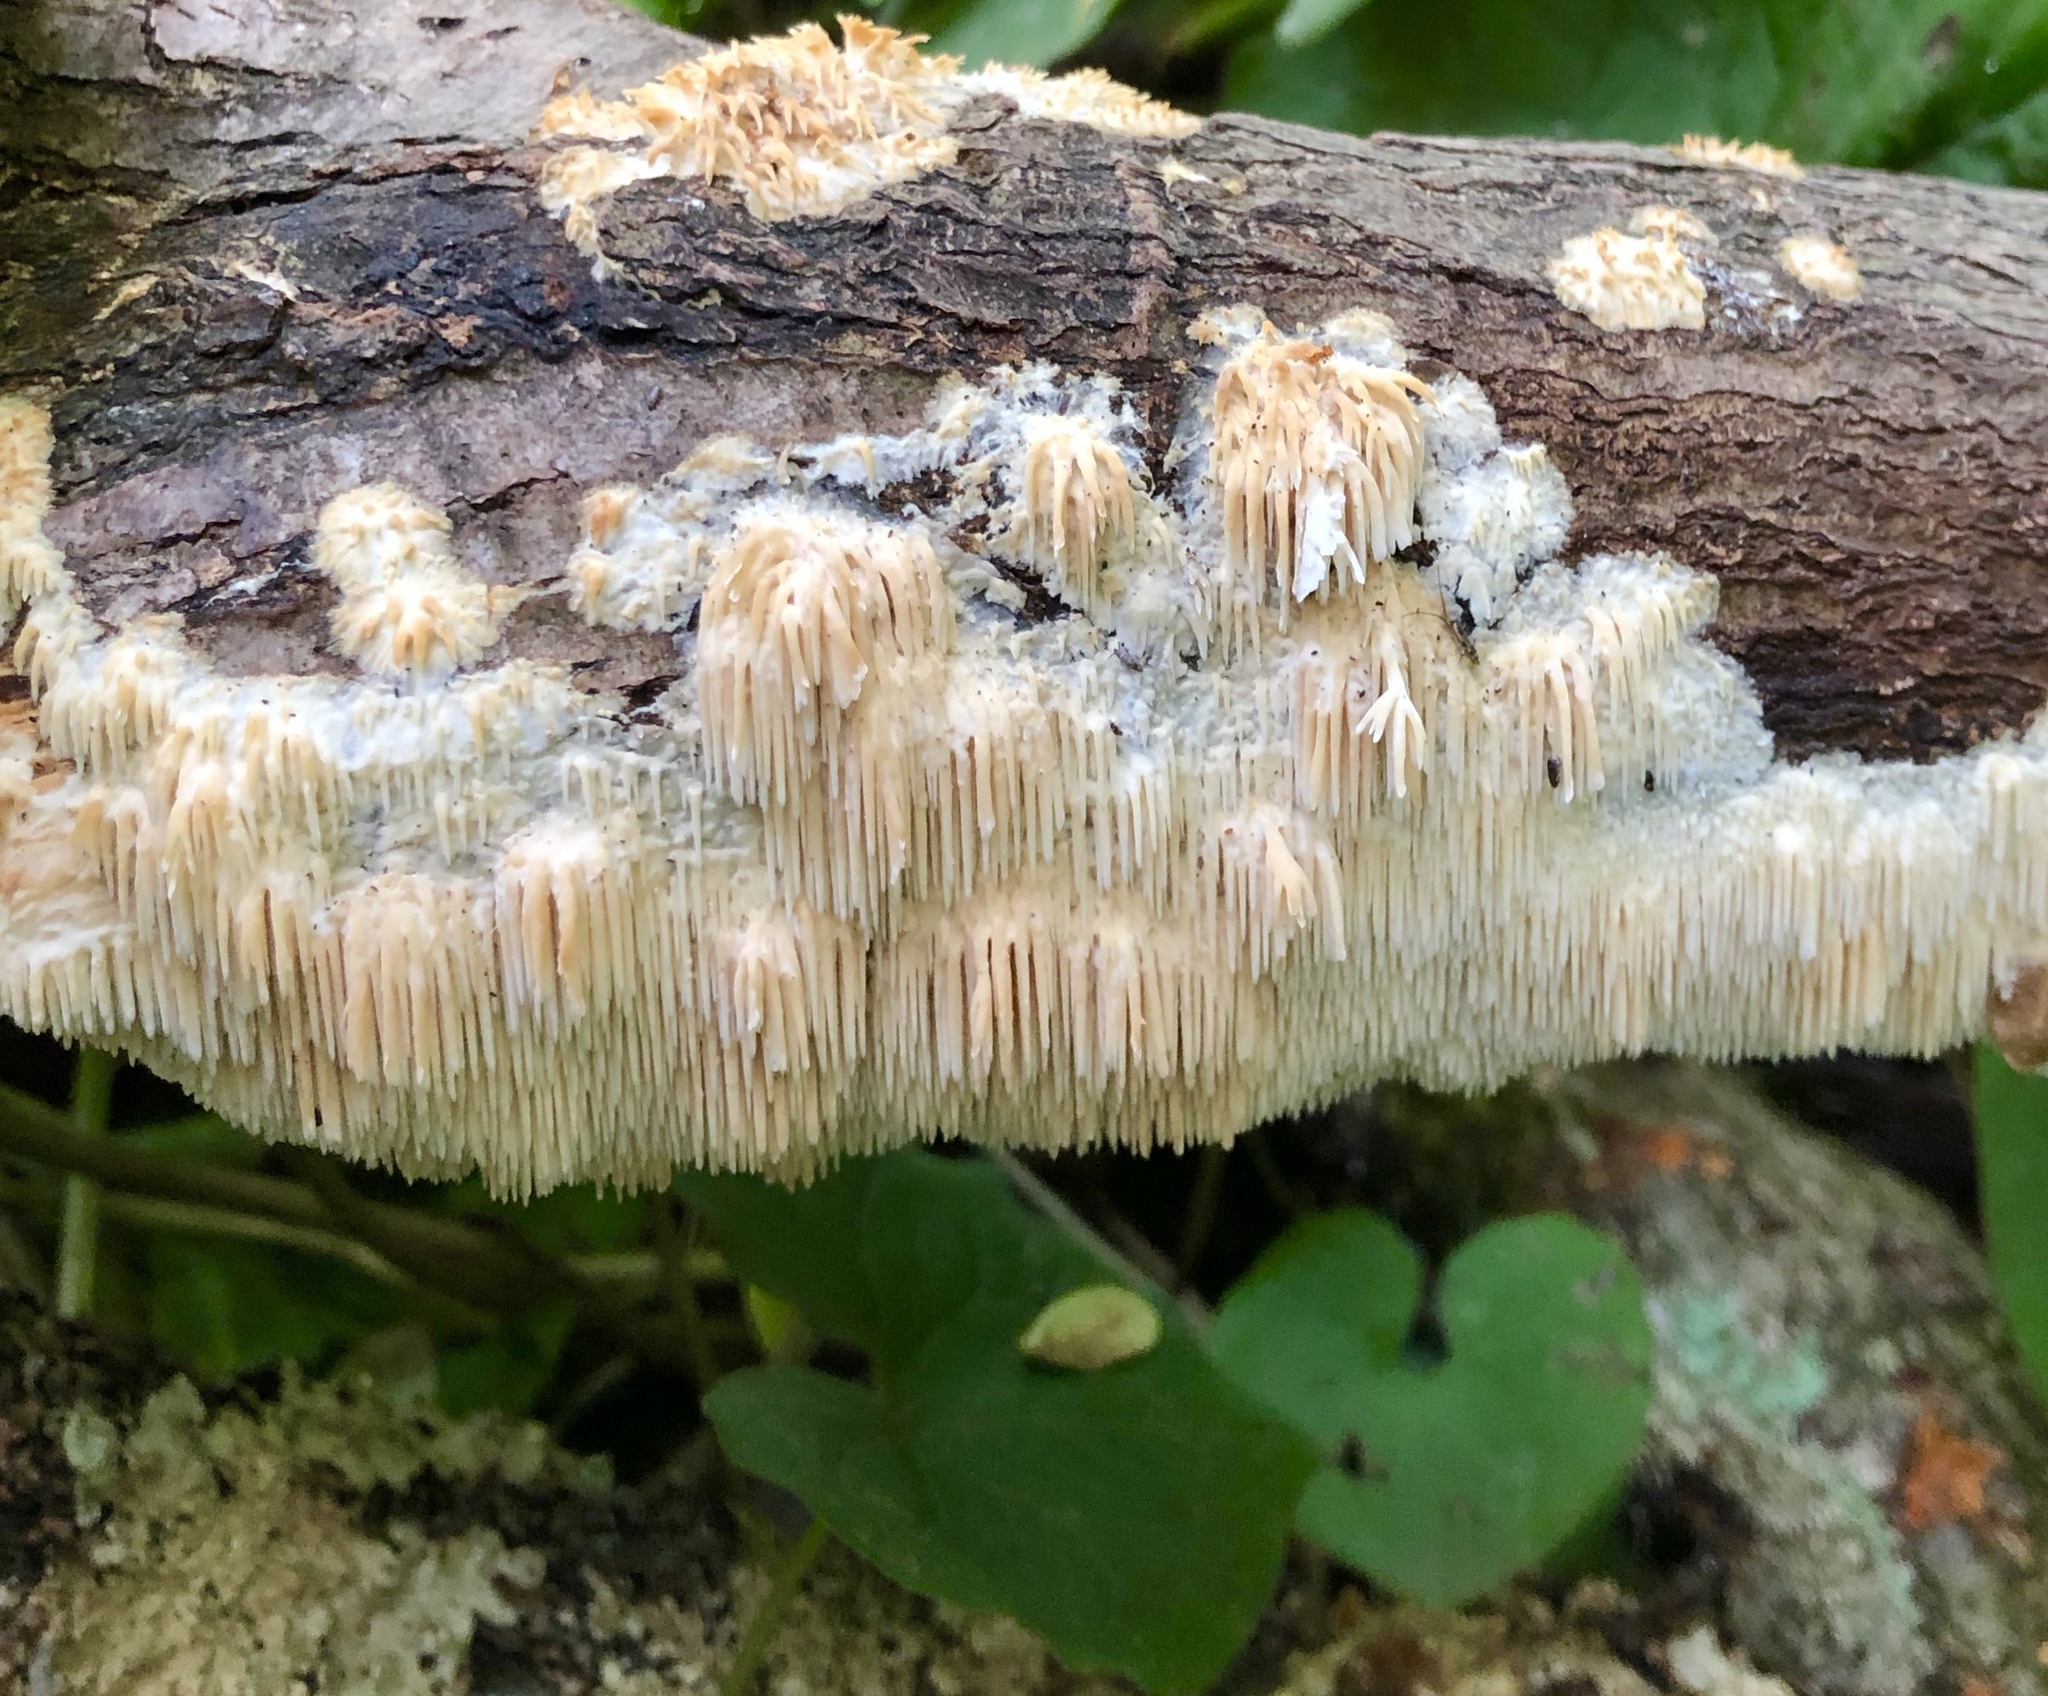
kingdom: Fungi
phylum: Basidiomycota
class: Agaricomycetes
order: Agaricales
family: Radulomycetaceae
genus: Radulomyces
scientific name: Radulomyces copelandii
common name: Asian beauty
